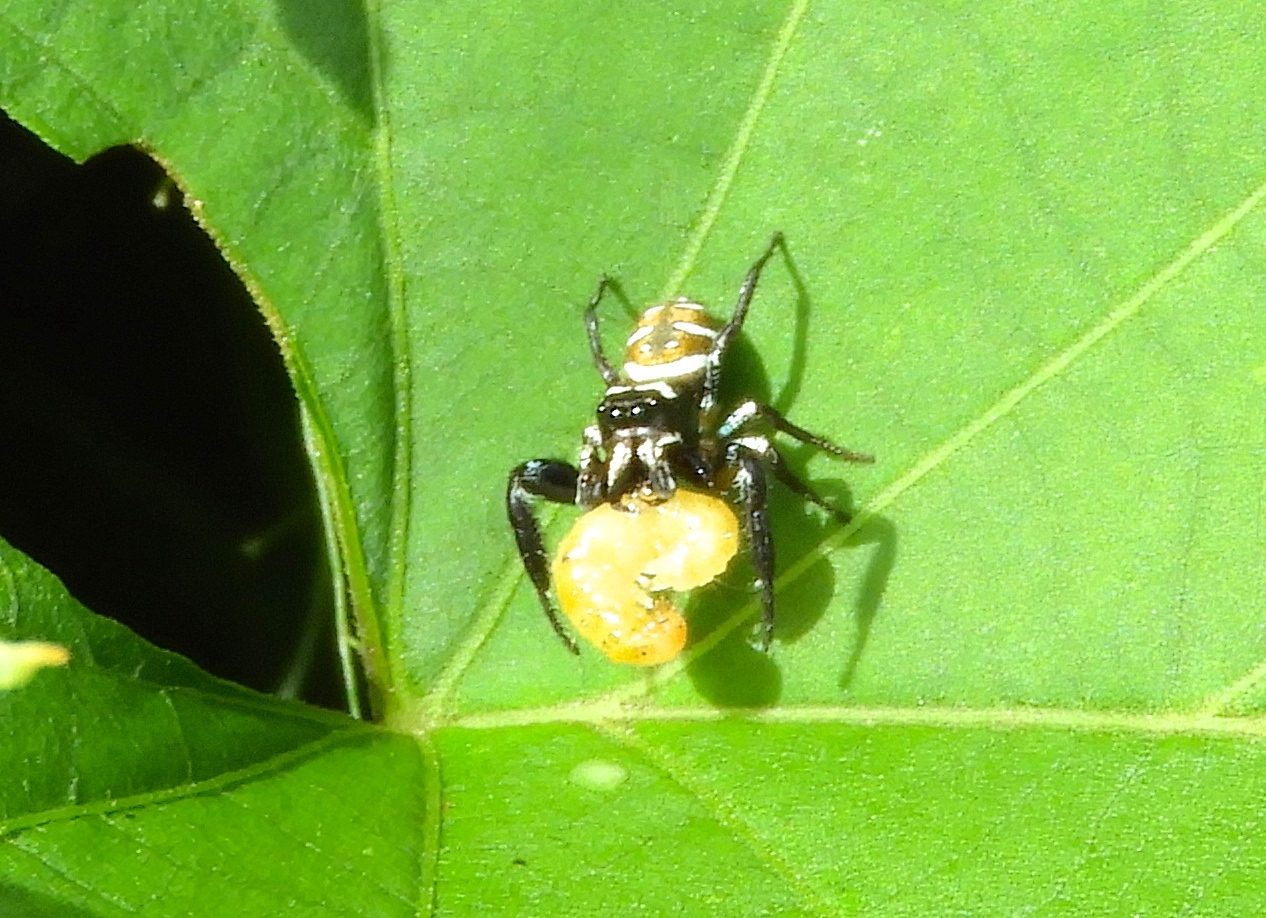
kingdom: Animalia
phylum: Arthropoda
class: Arachnida
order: Araneae
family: Salticidae
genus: Sassacus
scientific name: Sassacus
